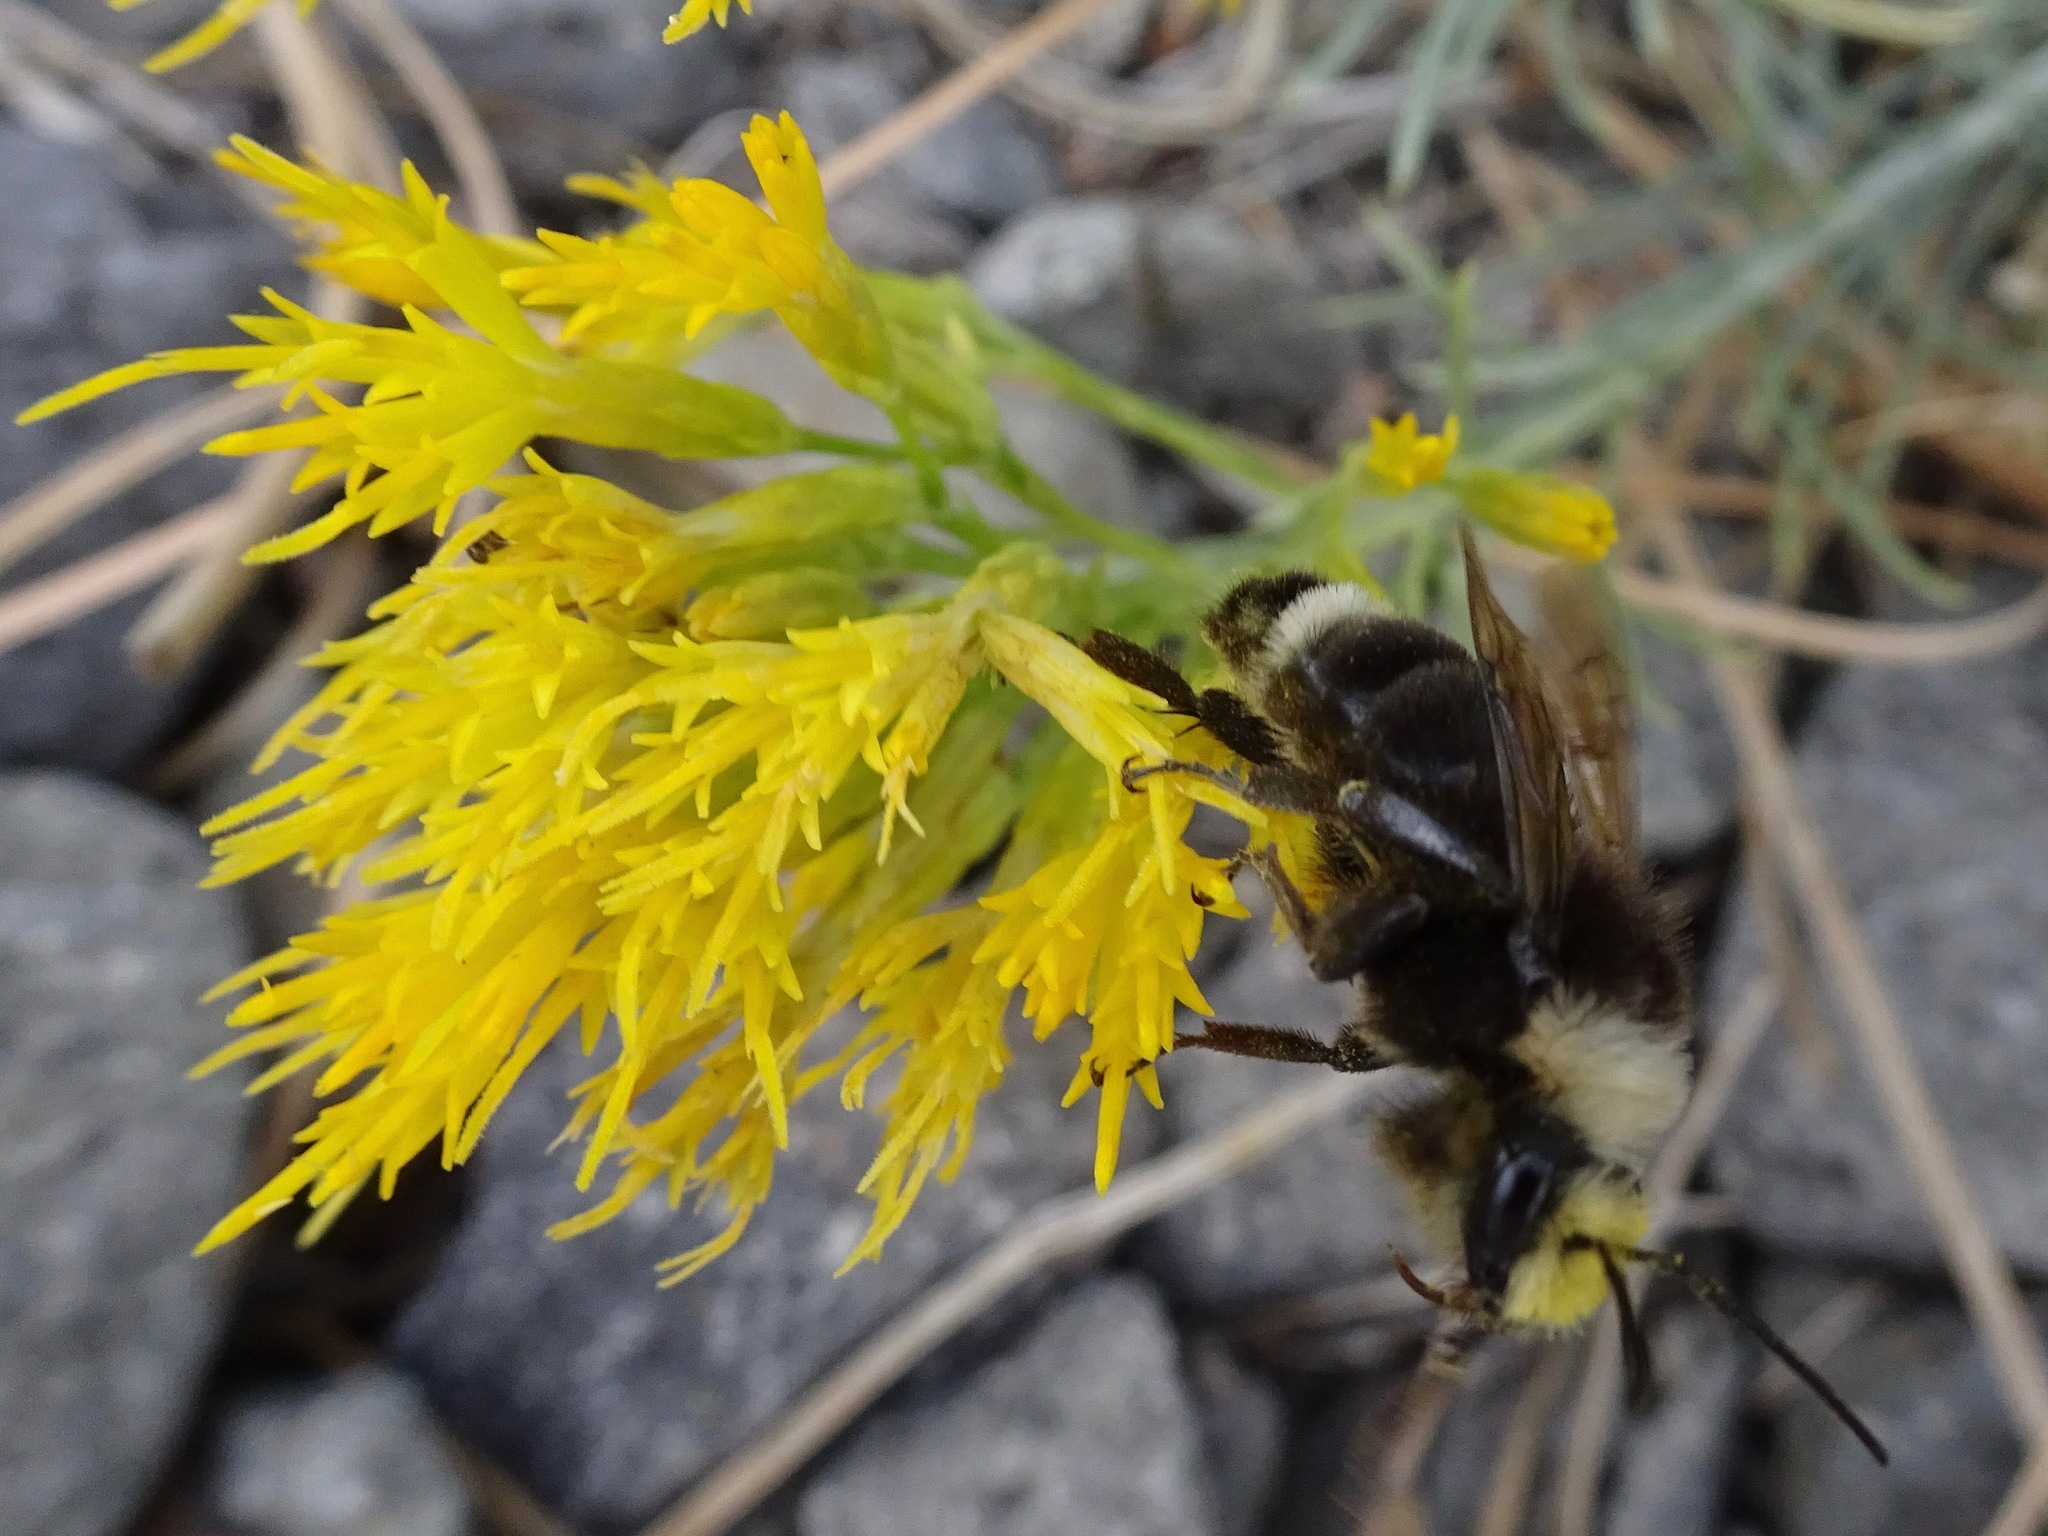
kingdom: Animalia
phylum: Arthropoda
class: Insecta
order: Hymenoptera
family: Apidae
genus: Bombus
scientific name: Bombus vosnesenskii
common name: Vosnesensky bumble bee
